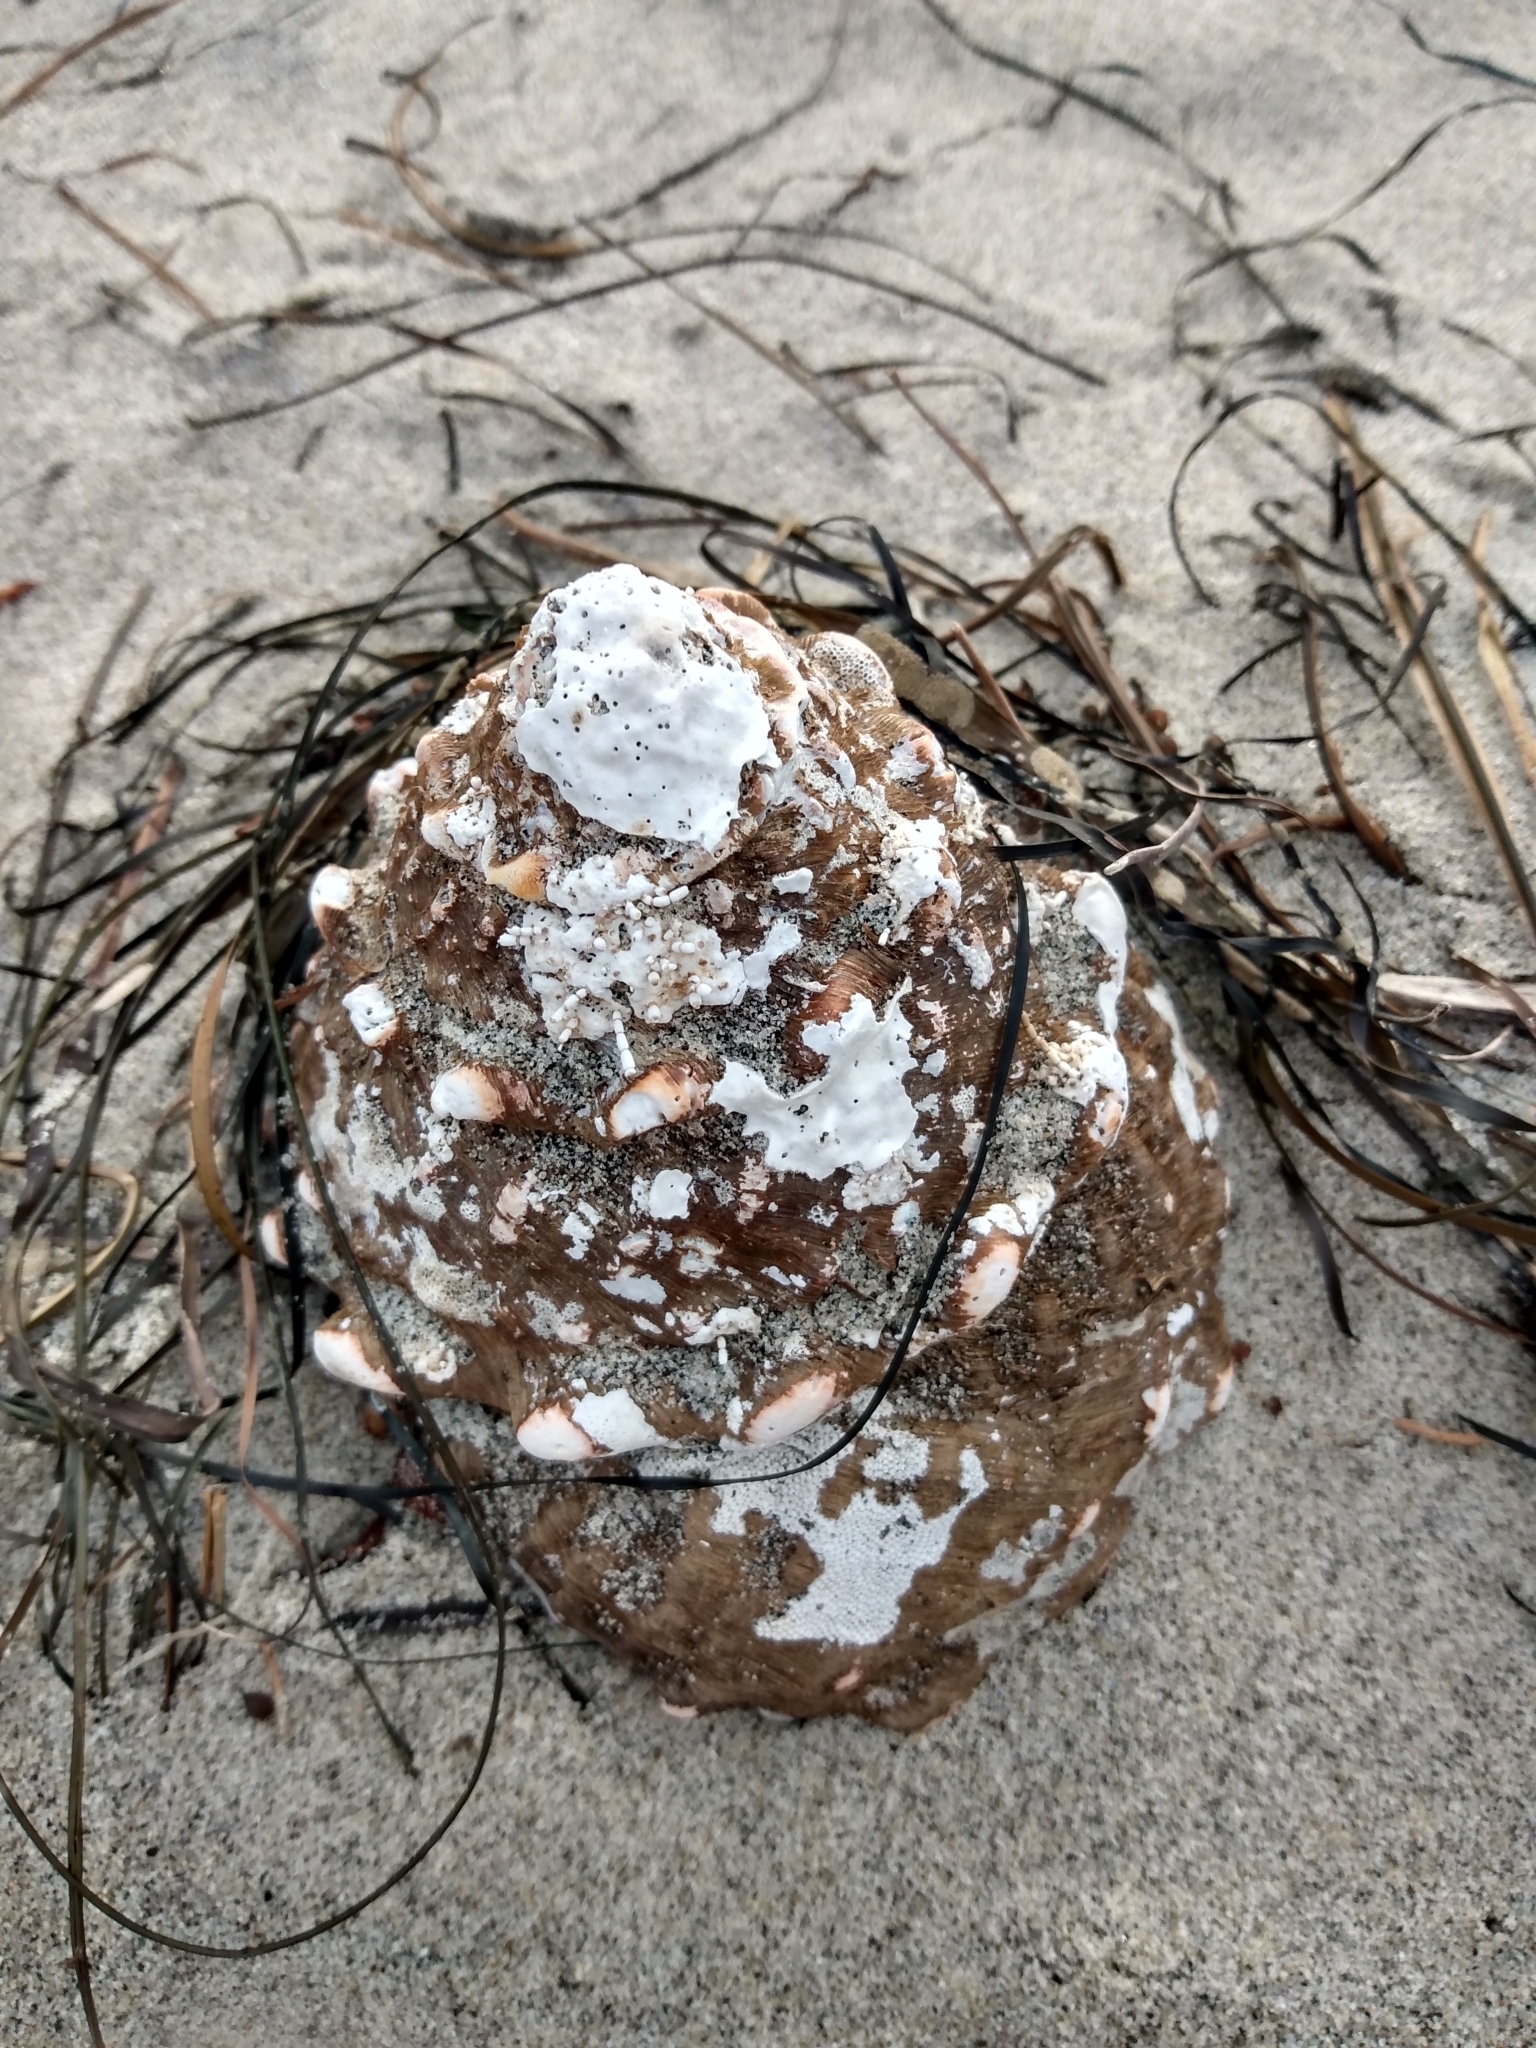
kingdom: Animalia
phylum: Mollusca
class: Gastropoda
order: Trochida
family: Turbinidae
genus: Megastraea
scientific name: Megastraea undosa
